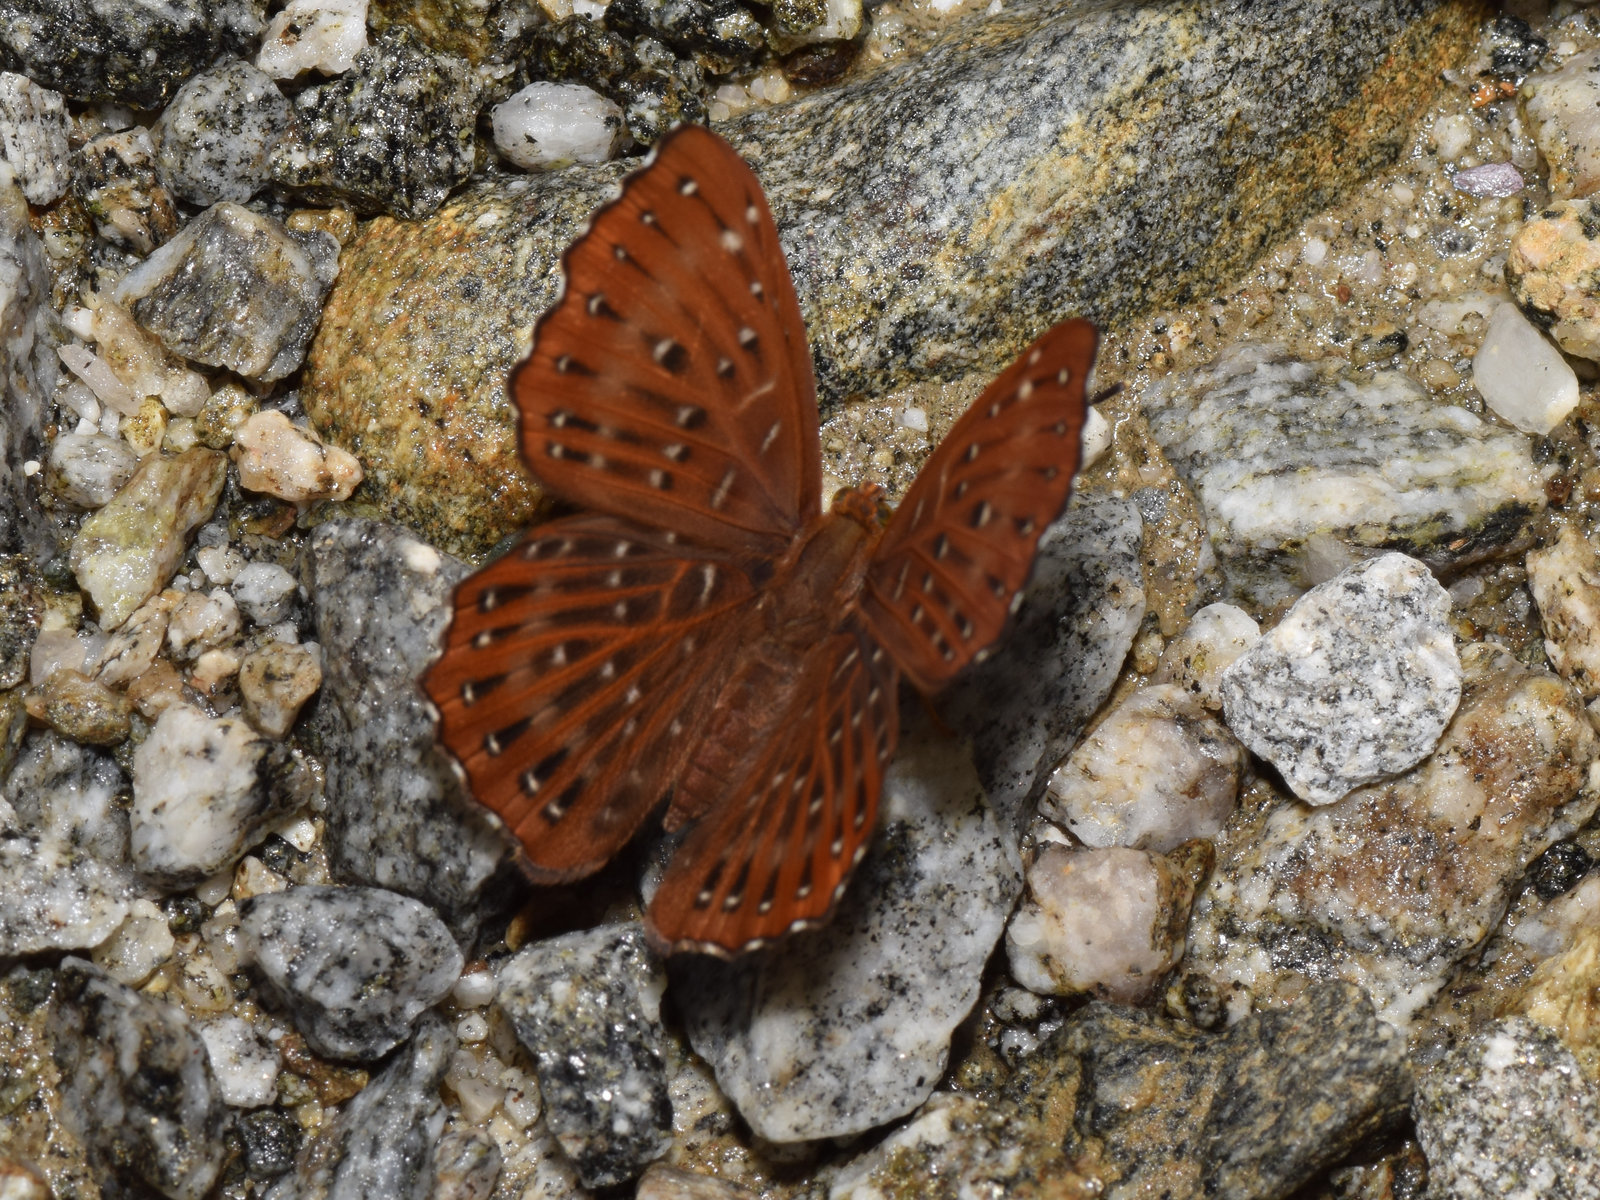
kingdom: Animalia
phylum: Arthropoda
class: Insecta
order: Lepidoptera
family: Riodinidae
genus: Zemeros
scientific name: Zemeros flegyas
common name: Punchinello
